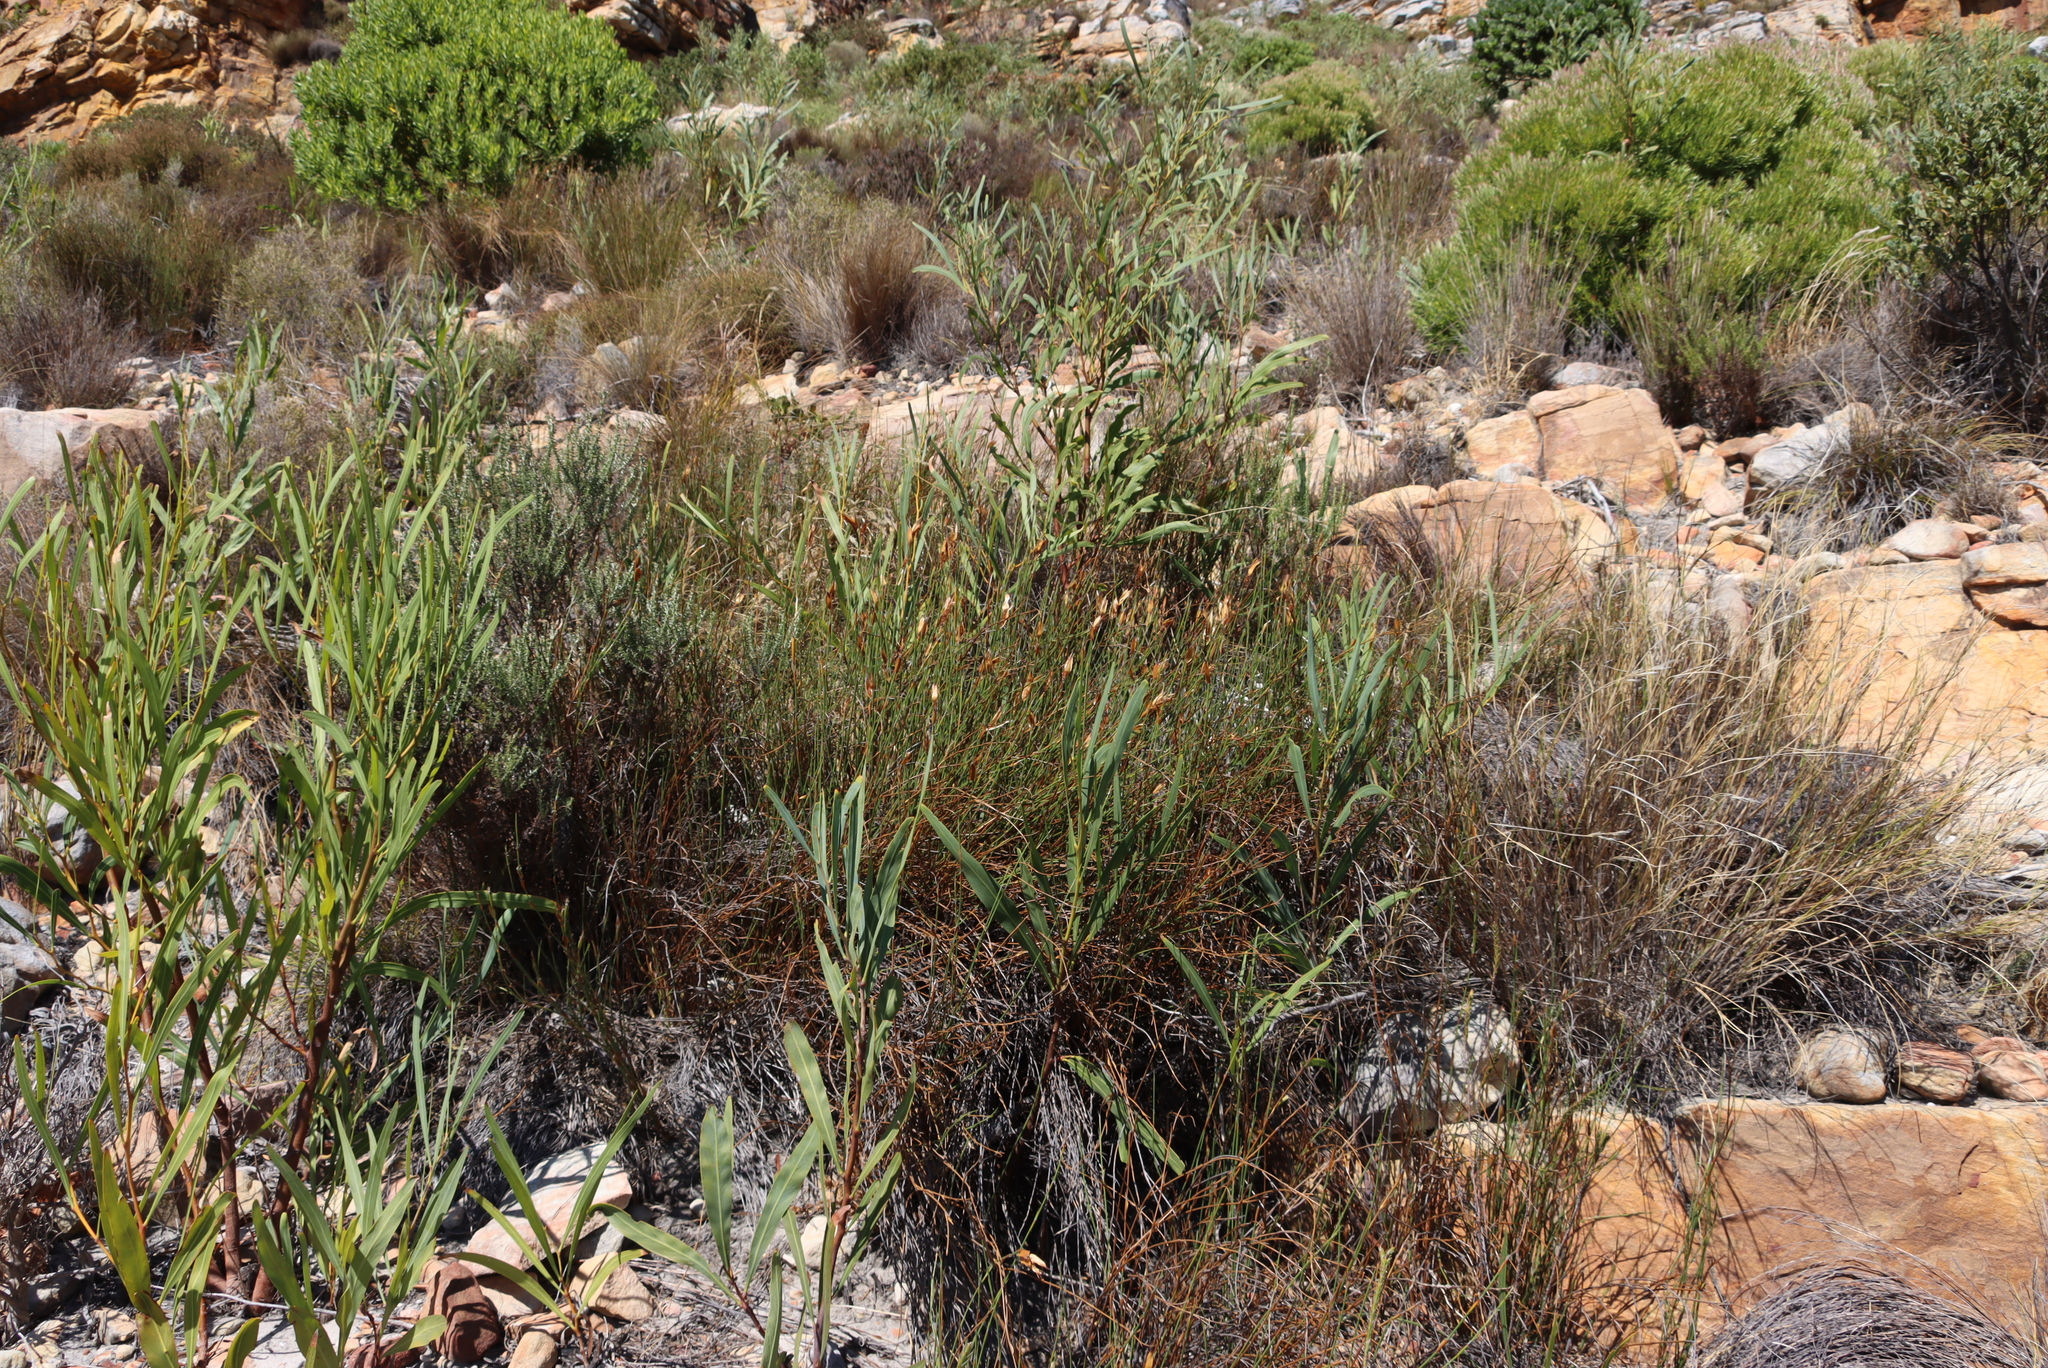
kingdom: Plantae
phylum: Tracheophyta
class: Magnoliopsida
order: Fabales
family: Fabaceae
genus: Acacia
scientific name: Acacia saligna
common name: Orange wattle
